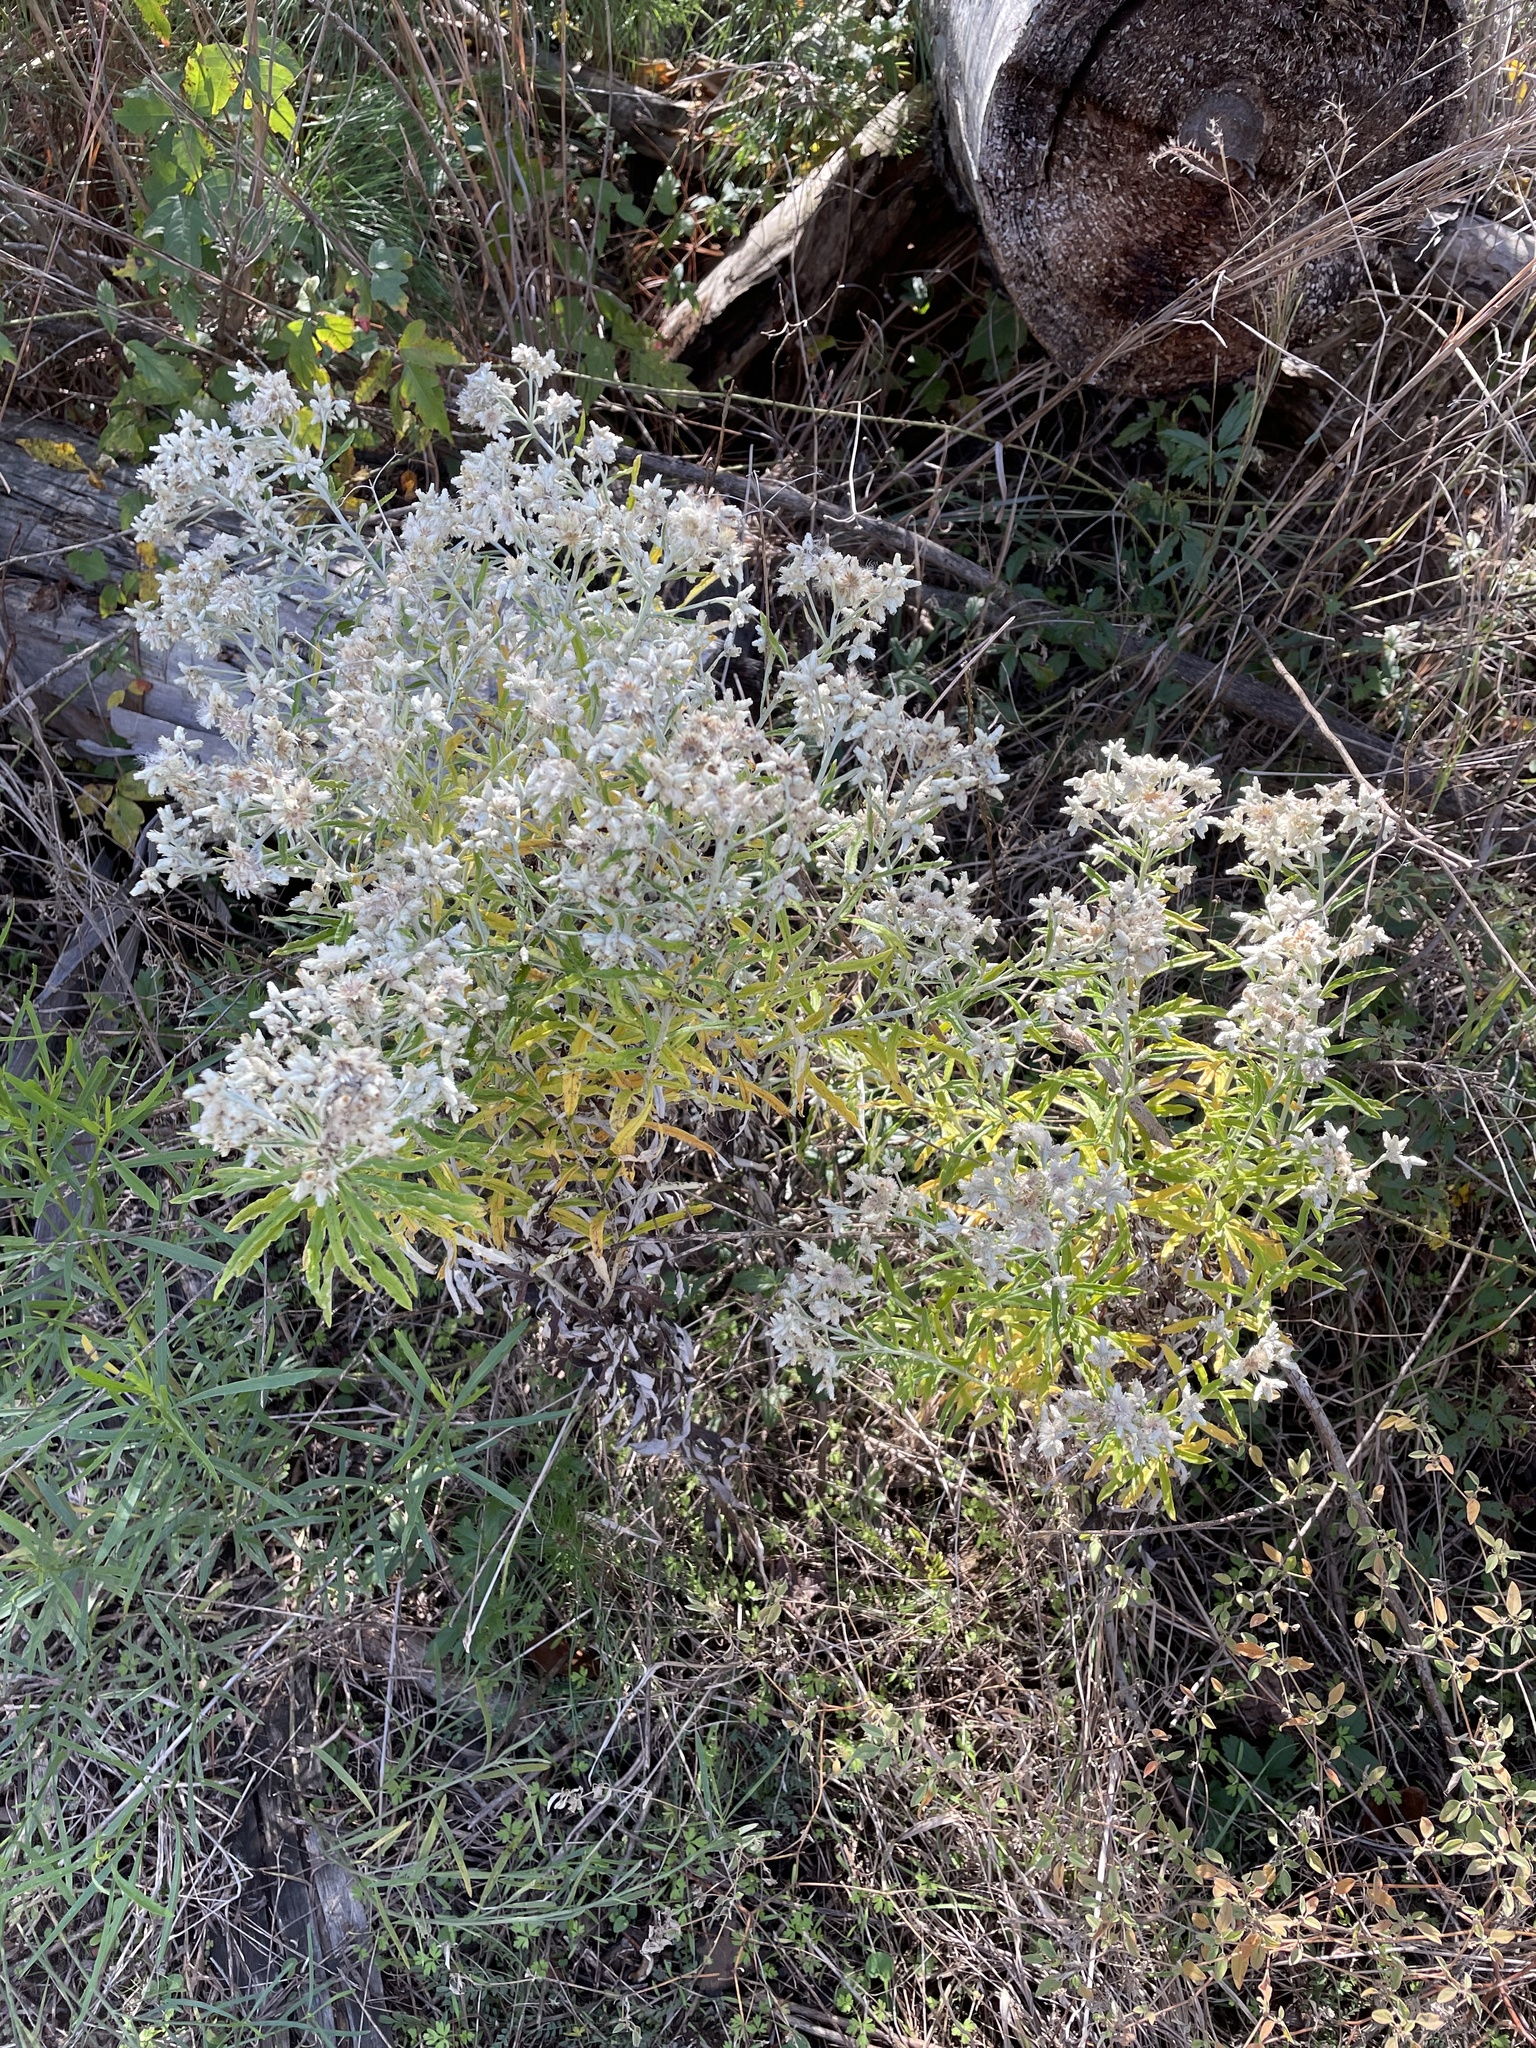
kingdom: Plantae
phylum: Tracheophyta
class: Magnoliopsida
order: Asterales
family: Asteraceae
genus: Pseudognaphalium
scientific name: Pseudognaphalium obtusifolium
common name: Eastern rabbit-tobacco
